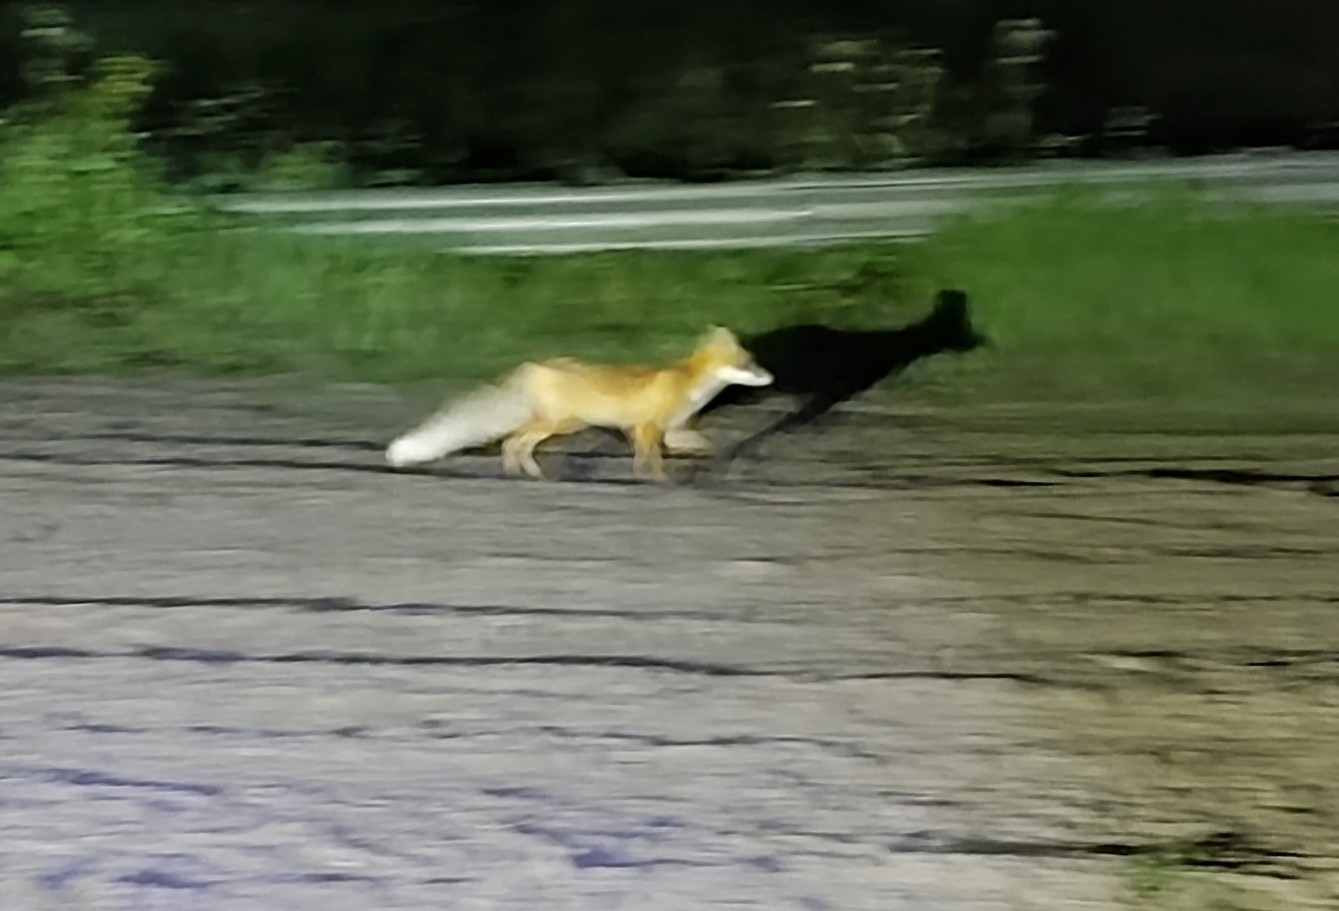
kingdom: Animalia
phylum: Chordata
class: Mammalia
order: Carnivora
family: Canidae
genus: Vulpes
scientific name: Vulpes vulpes
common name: Red fox
